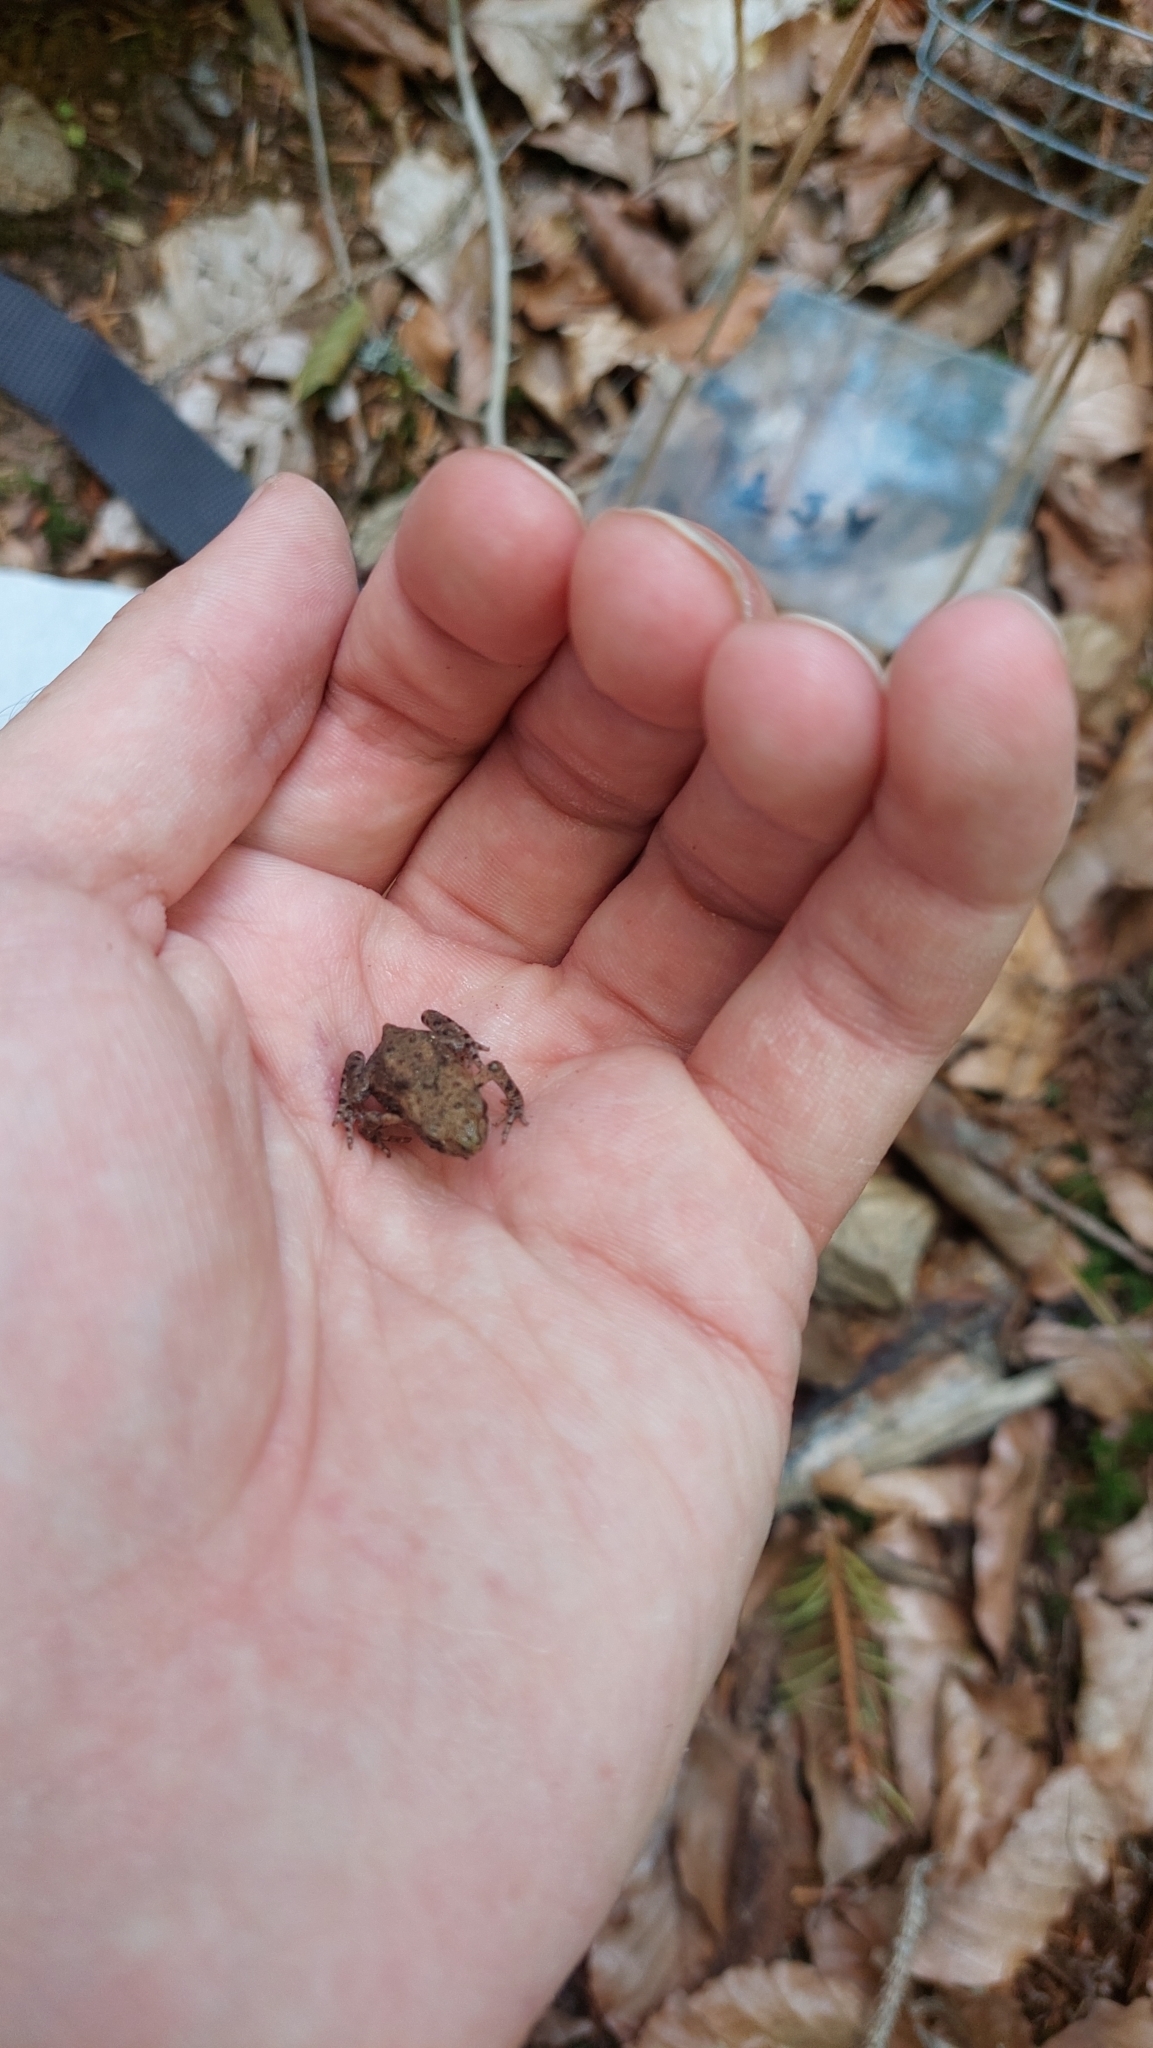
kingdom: Animalia
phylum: Chordata
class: Amphibia
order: Anura
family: Bufonidae
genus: Bufo
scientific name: Bufo bufo
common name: Common toad
